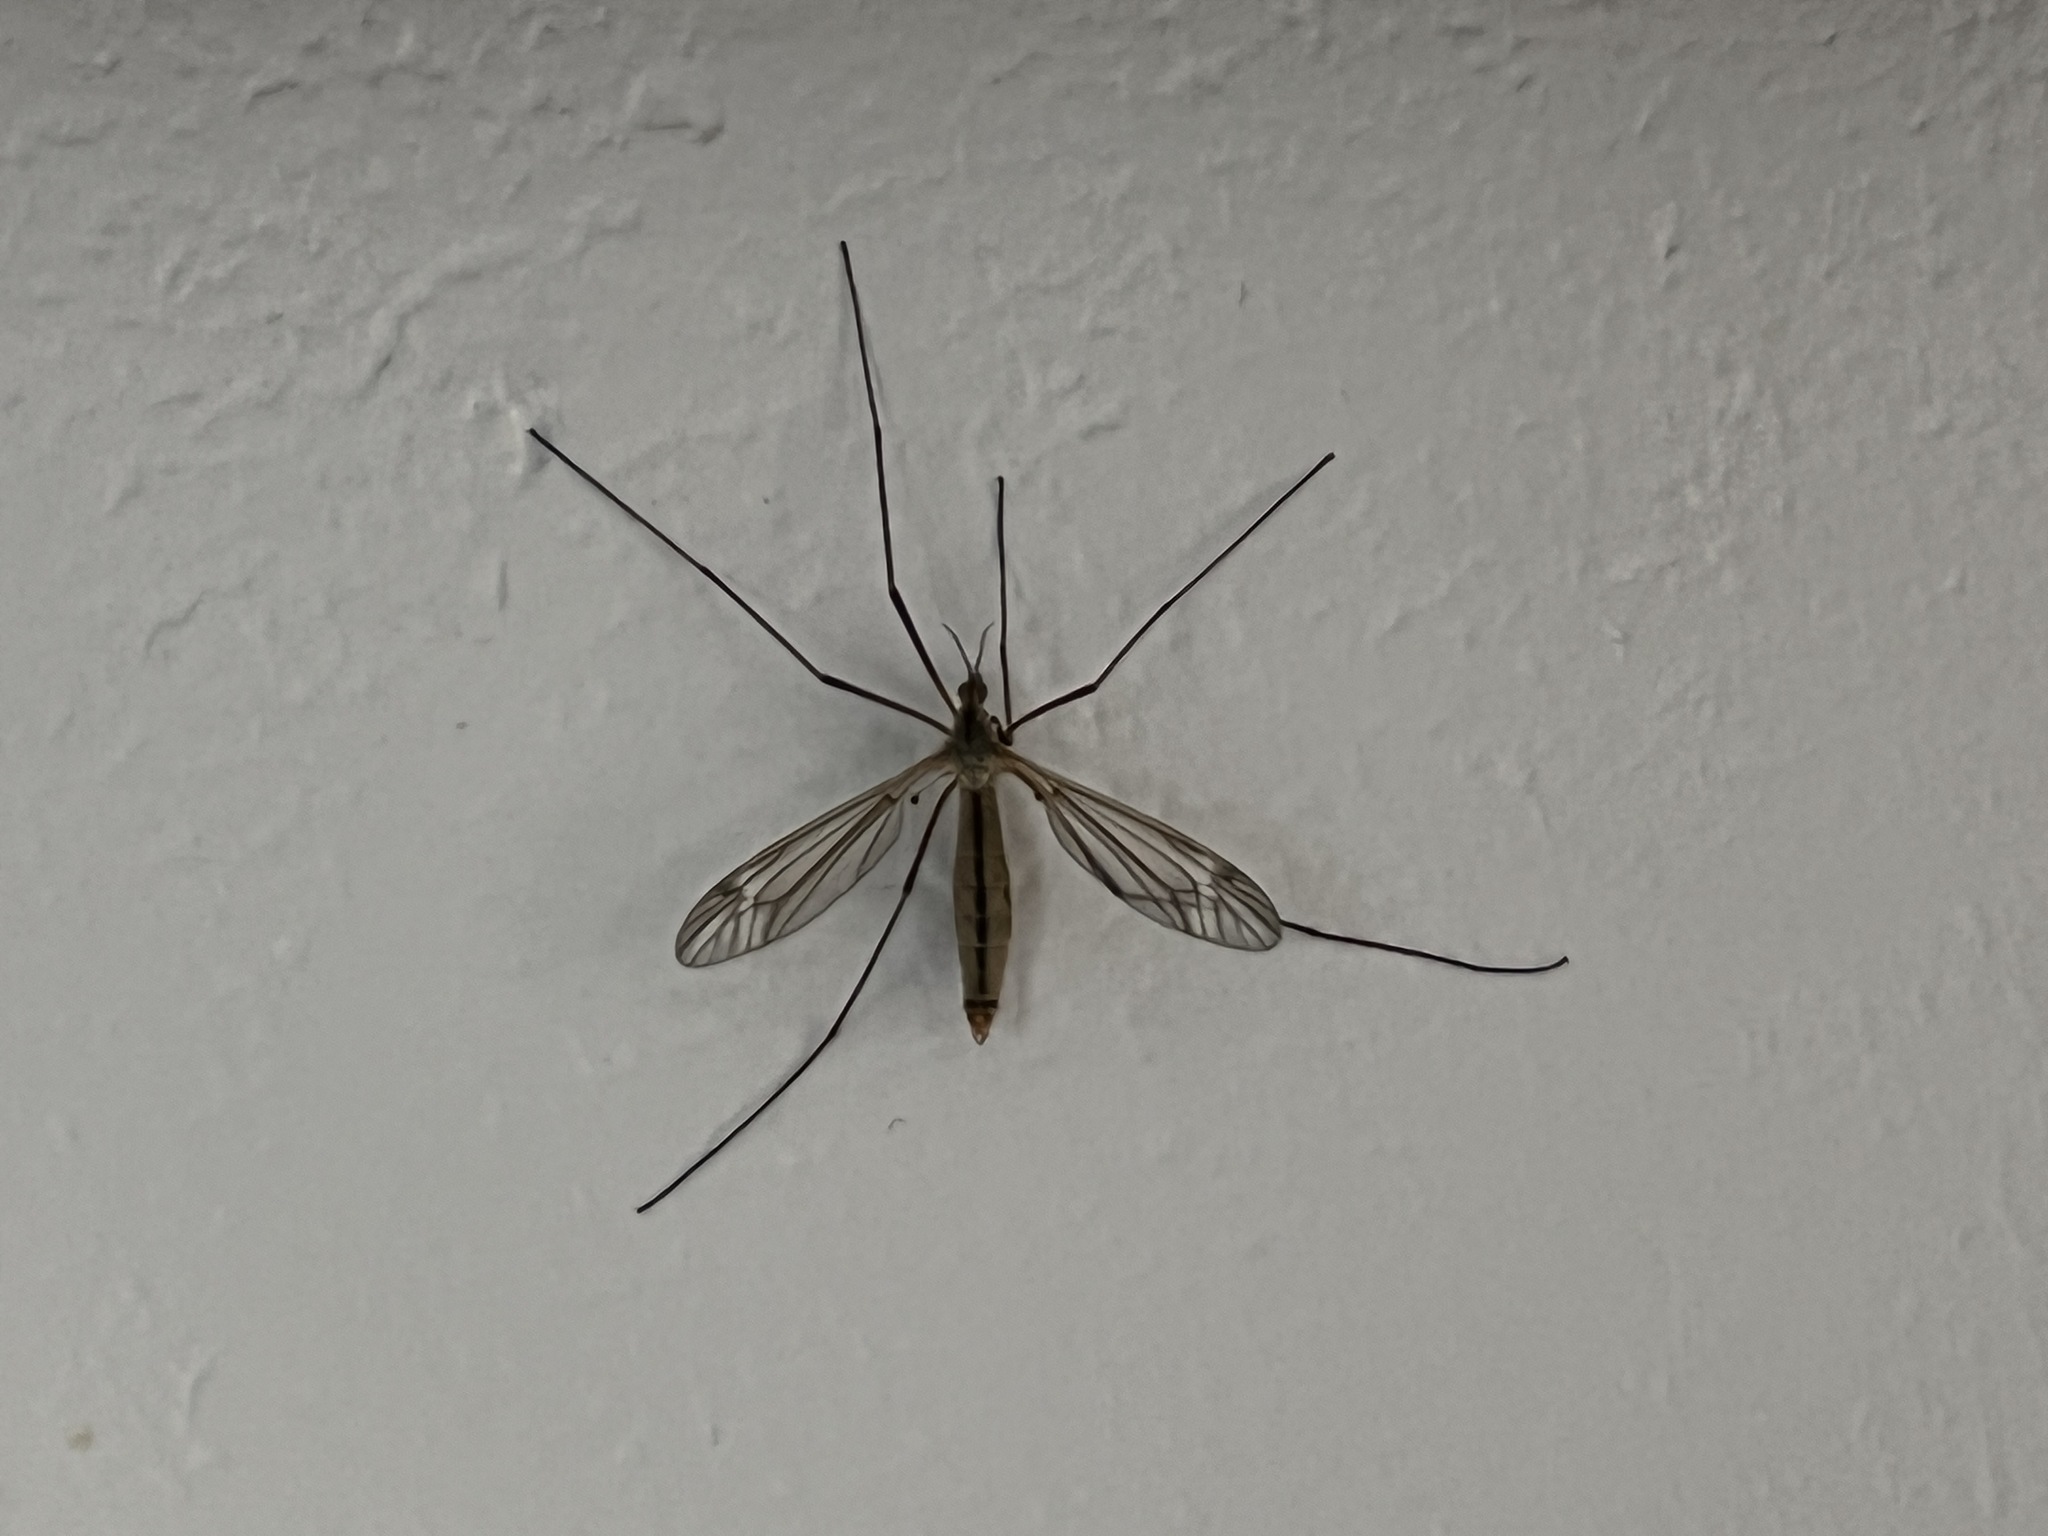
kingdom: Animalia
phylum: Arthropoda
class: Insecta
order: Diptera
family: Tipulidae
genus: Tipula
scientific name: Tipula vernalis
